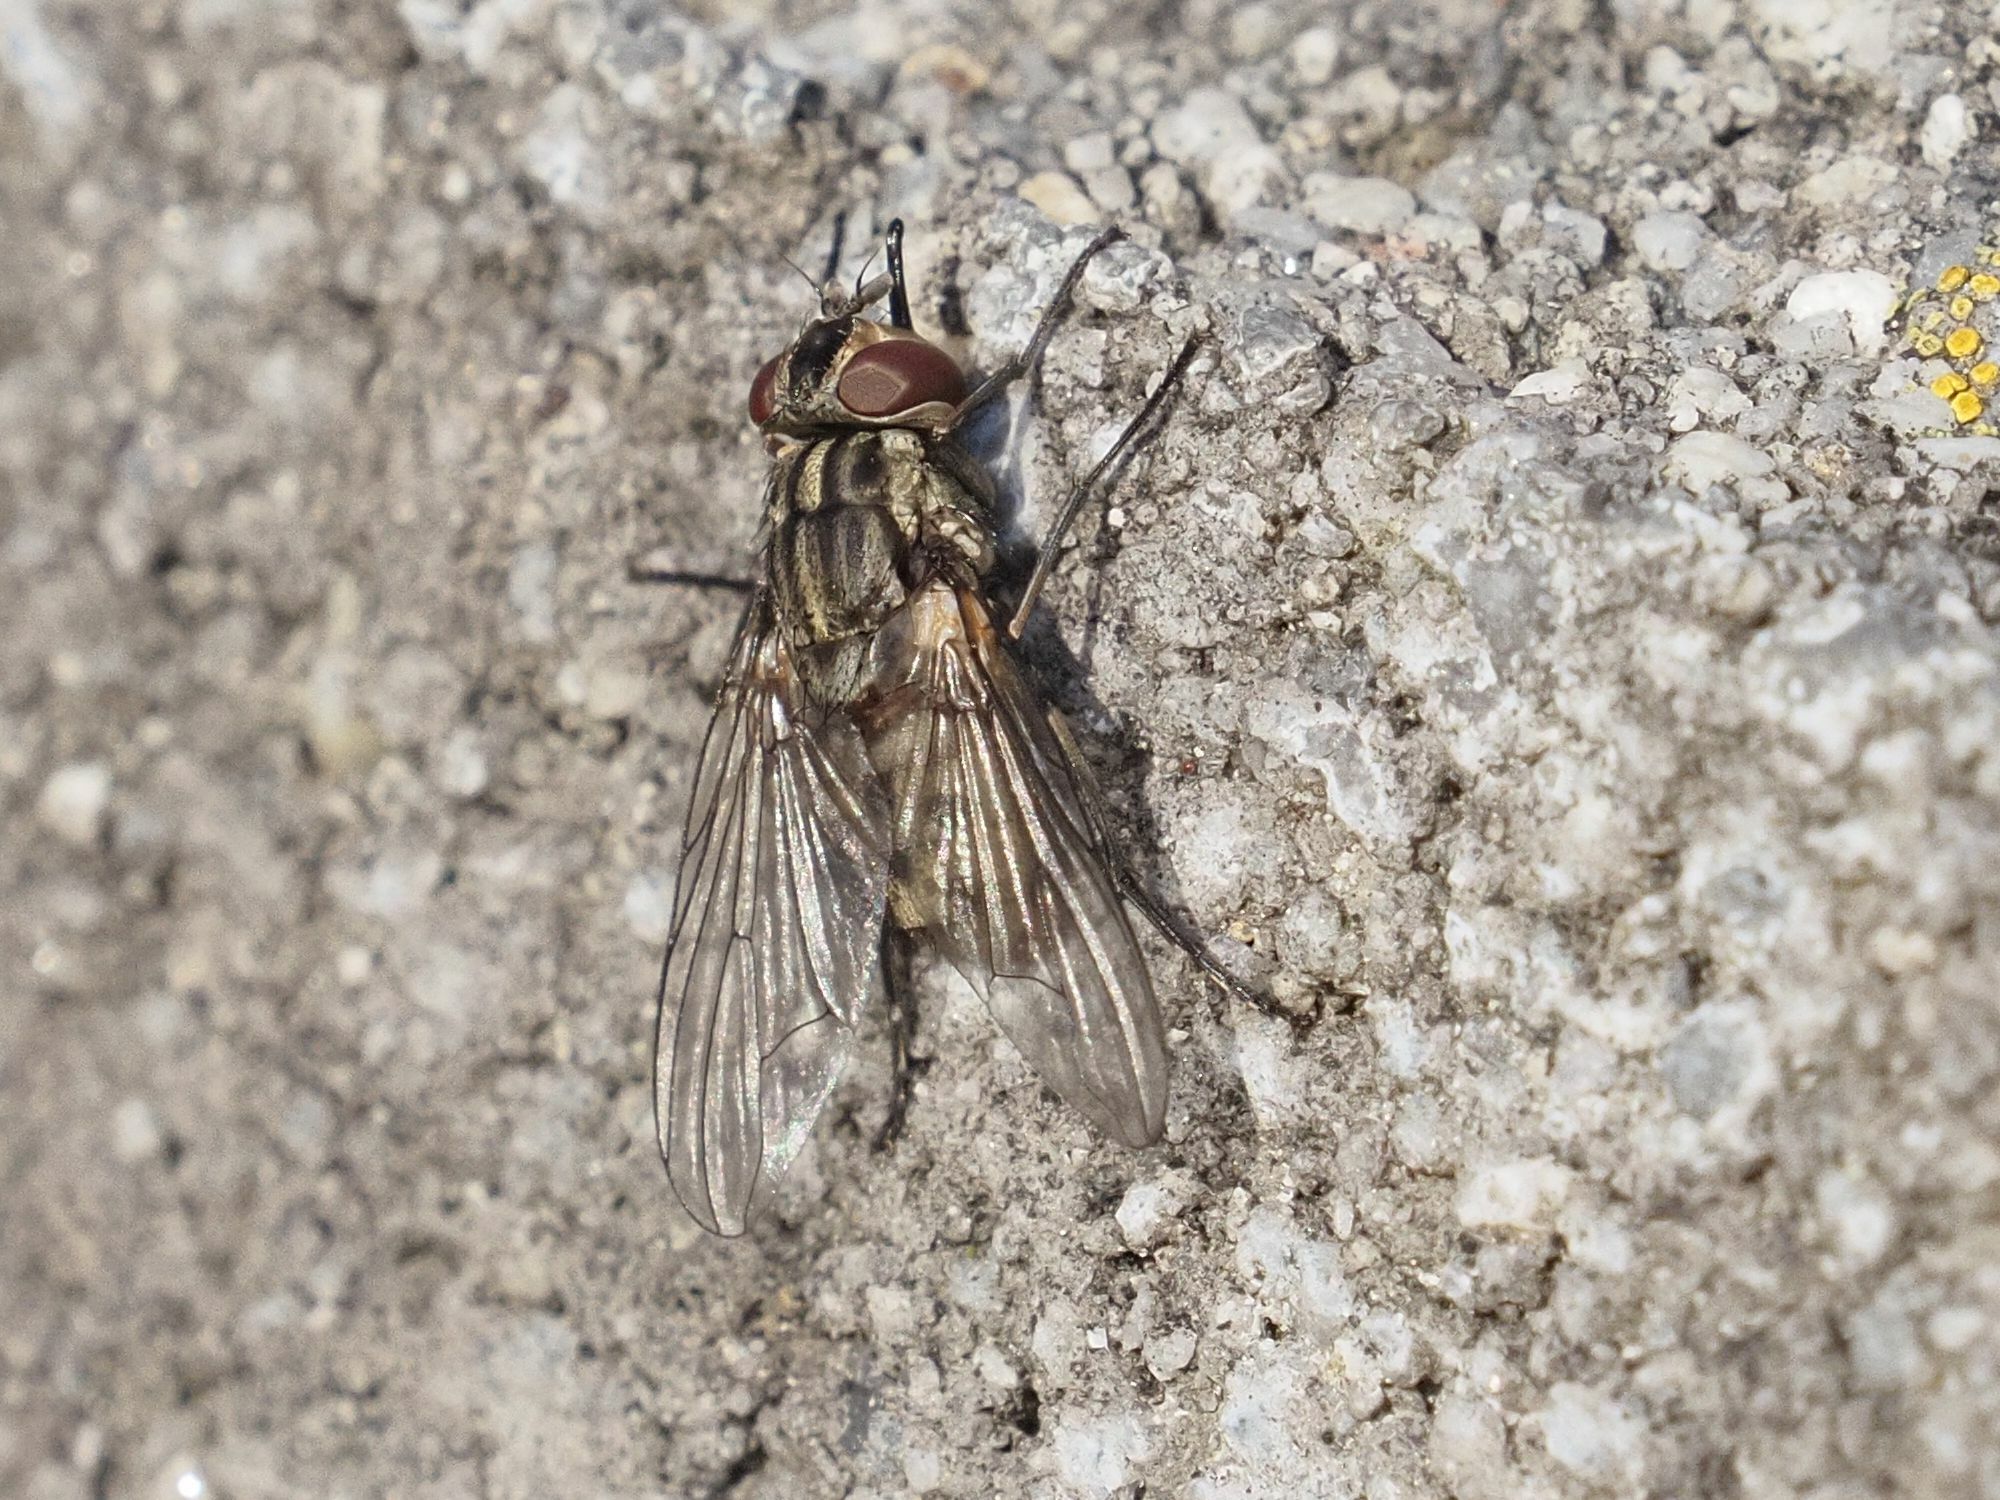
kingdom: Animalia
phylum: Arthropoda
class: Insecta
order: Diptera
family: Muscidae
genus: Stomoxys
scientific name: Stomoxys calcitrans
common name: Stable fly
